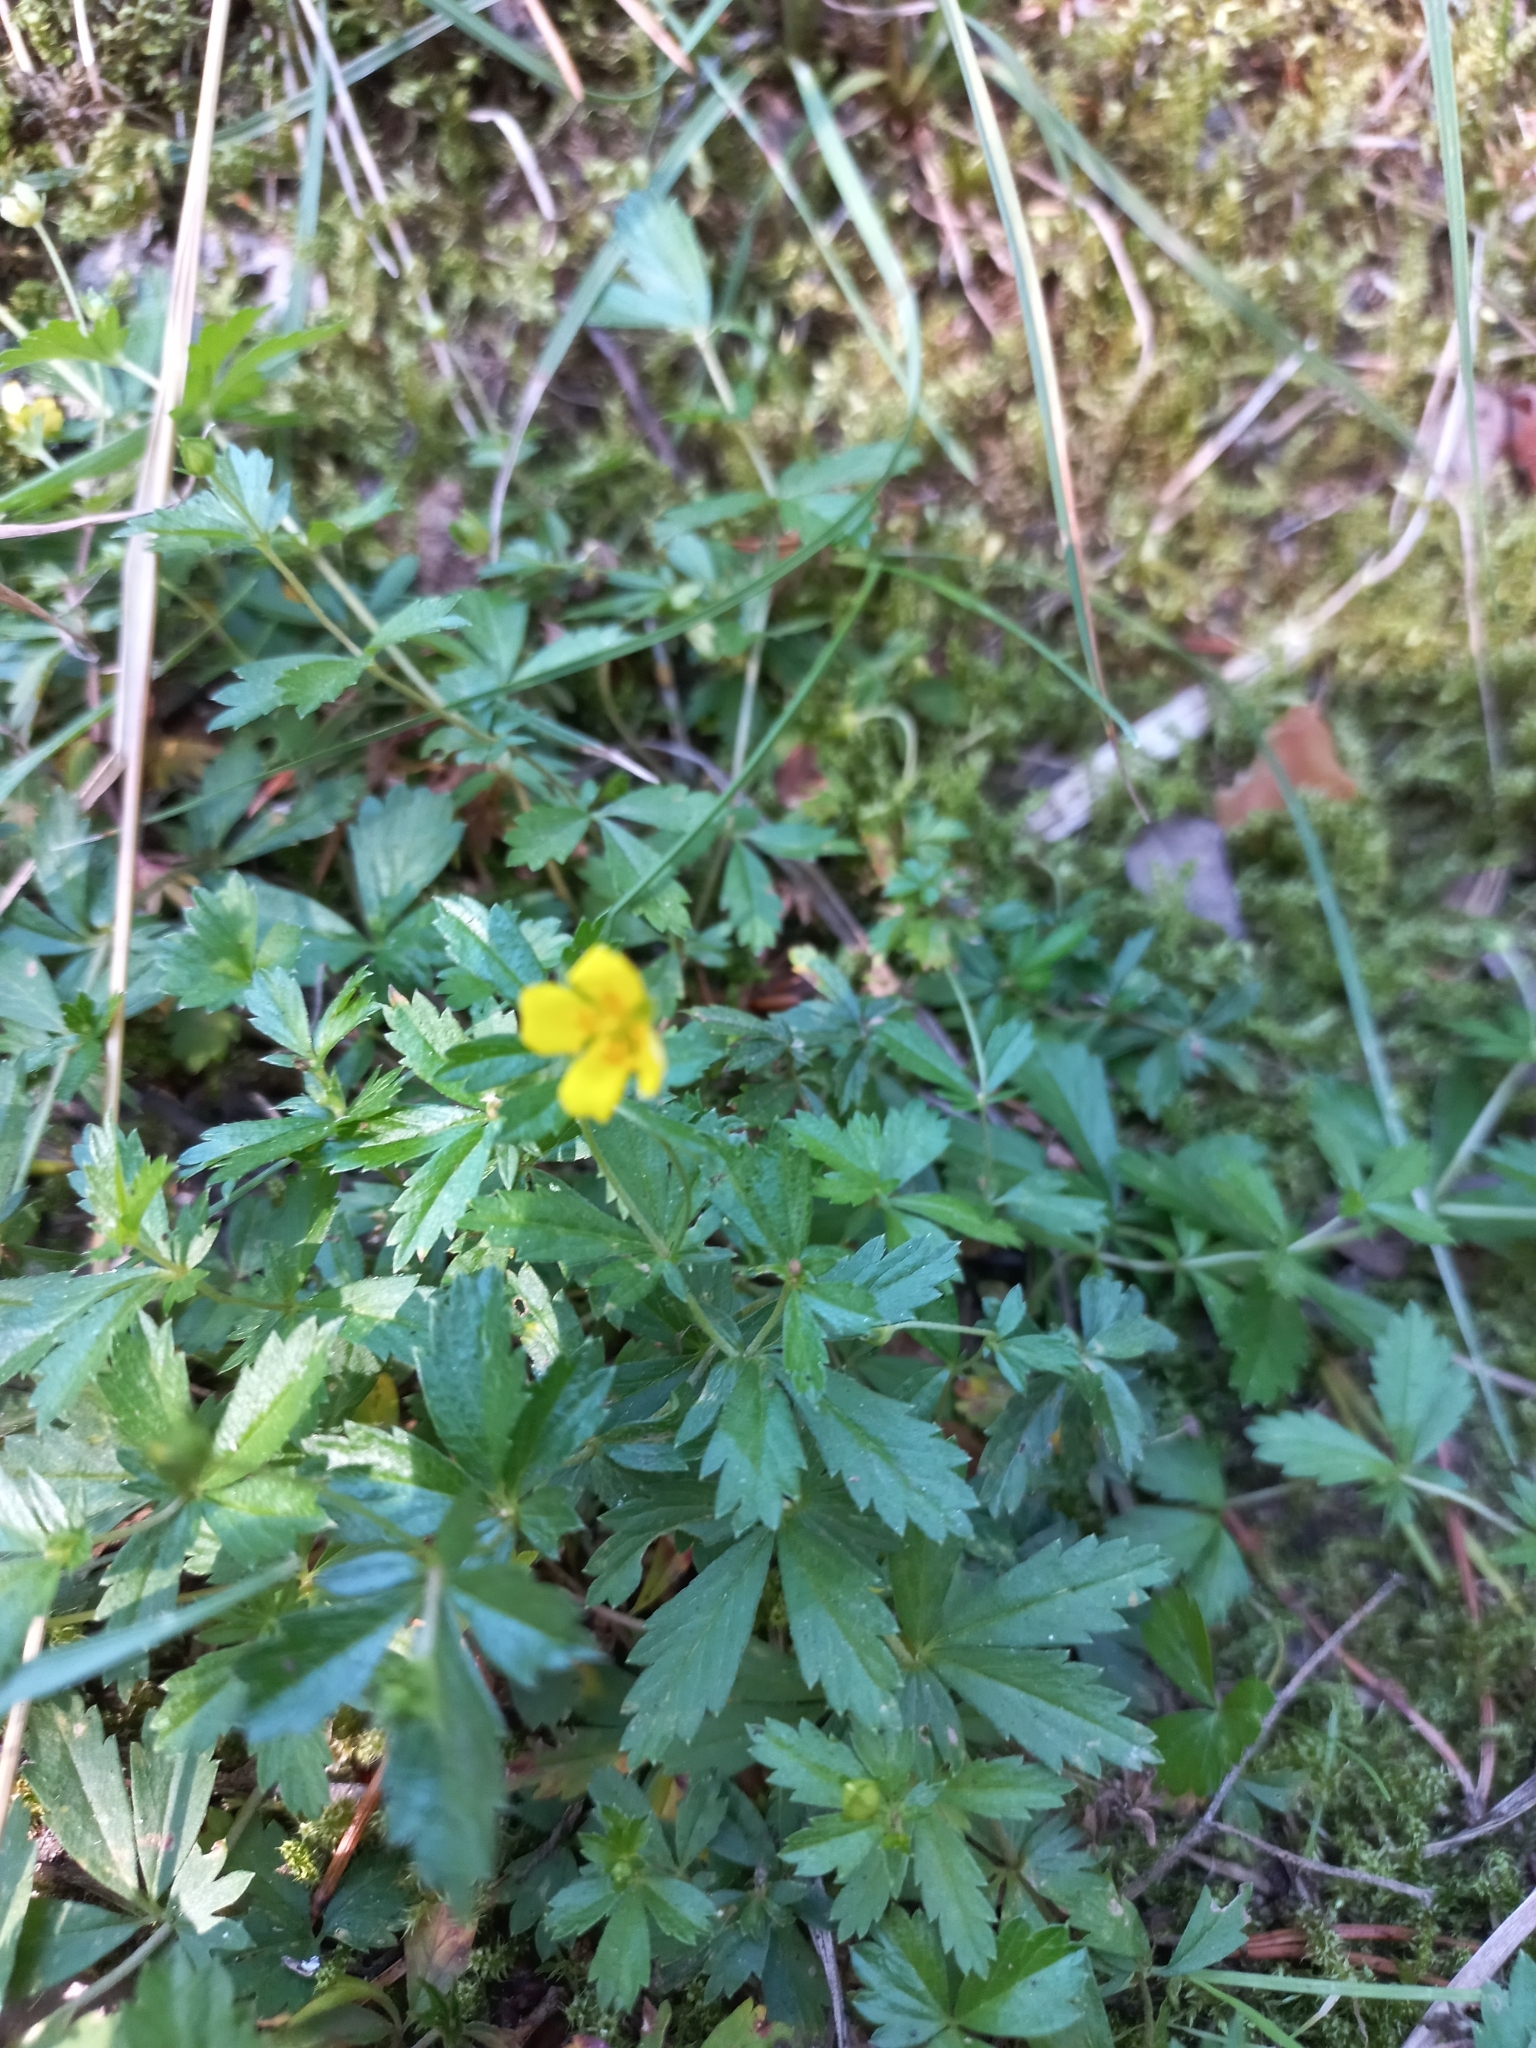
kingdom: Plantae
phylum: Tracheophyta
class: Magnoliopsida
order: Rosales
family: Rosaceae
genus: Potentilla
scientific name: Potentilla erecta
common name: Tormentil
